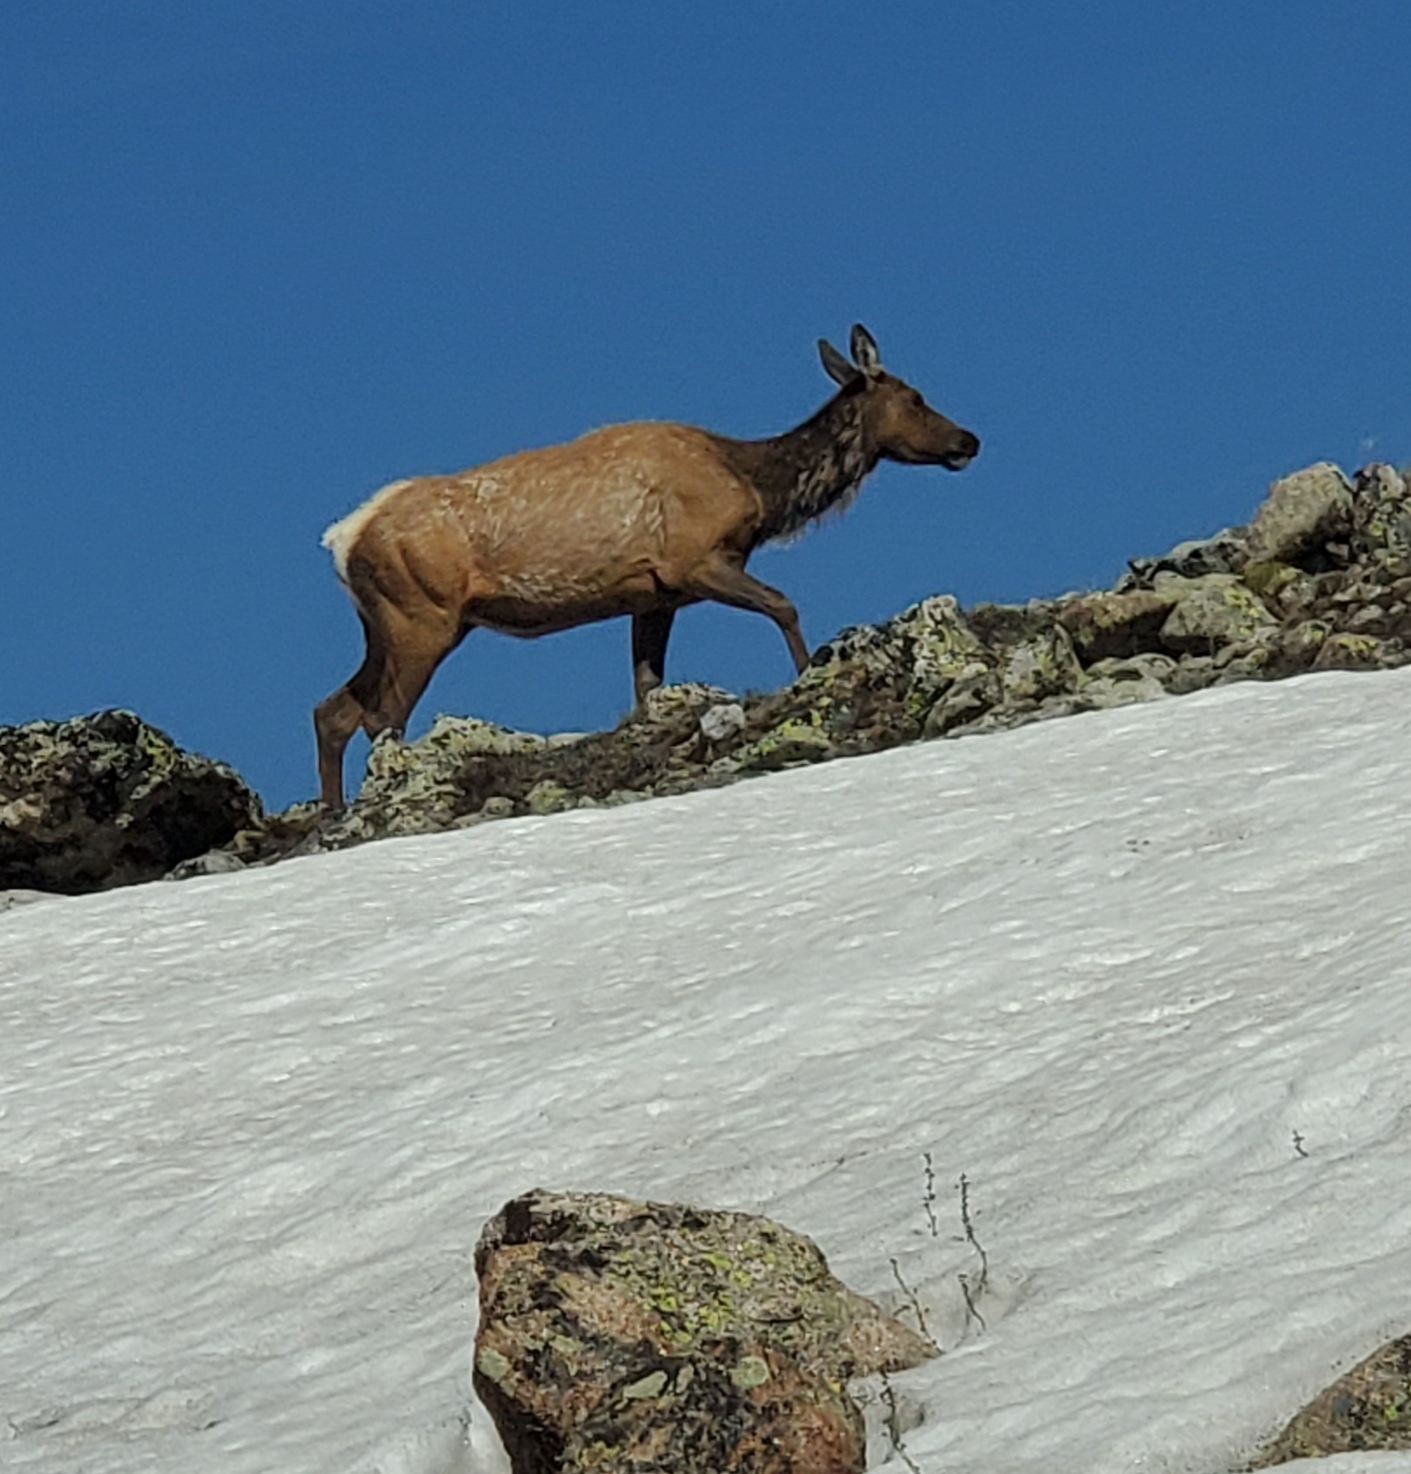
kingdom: Animalia
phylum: Chordata
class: Mammalia
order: Artiodactyla
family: Cervidae
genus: Cervus
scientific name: Cervus elaphus
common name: Red deer
